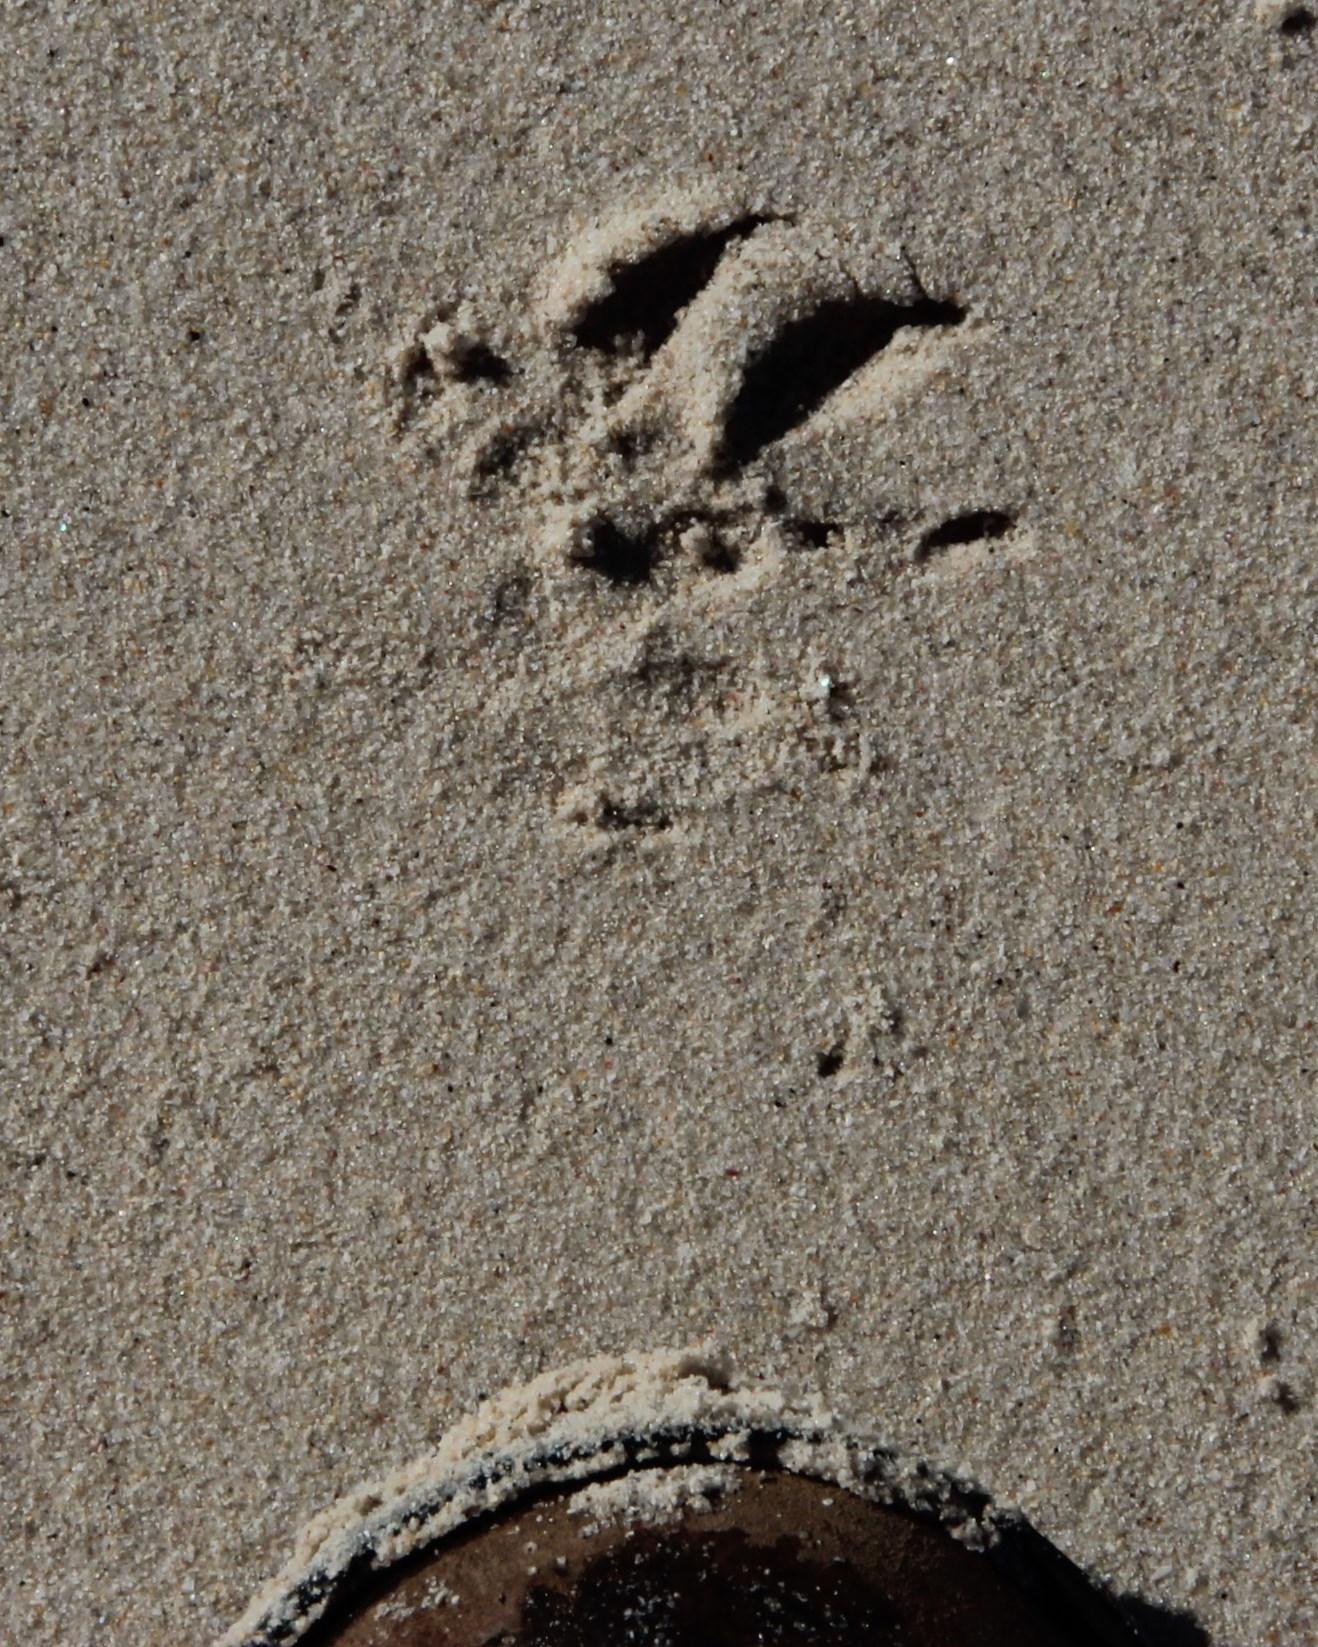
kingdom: Animalia
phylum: Chordata
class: Mammalia
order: Carnivora
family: Herpestidae
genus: Atilax
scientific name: Atilax paludinosus
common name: Marsh mongoose
